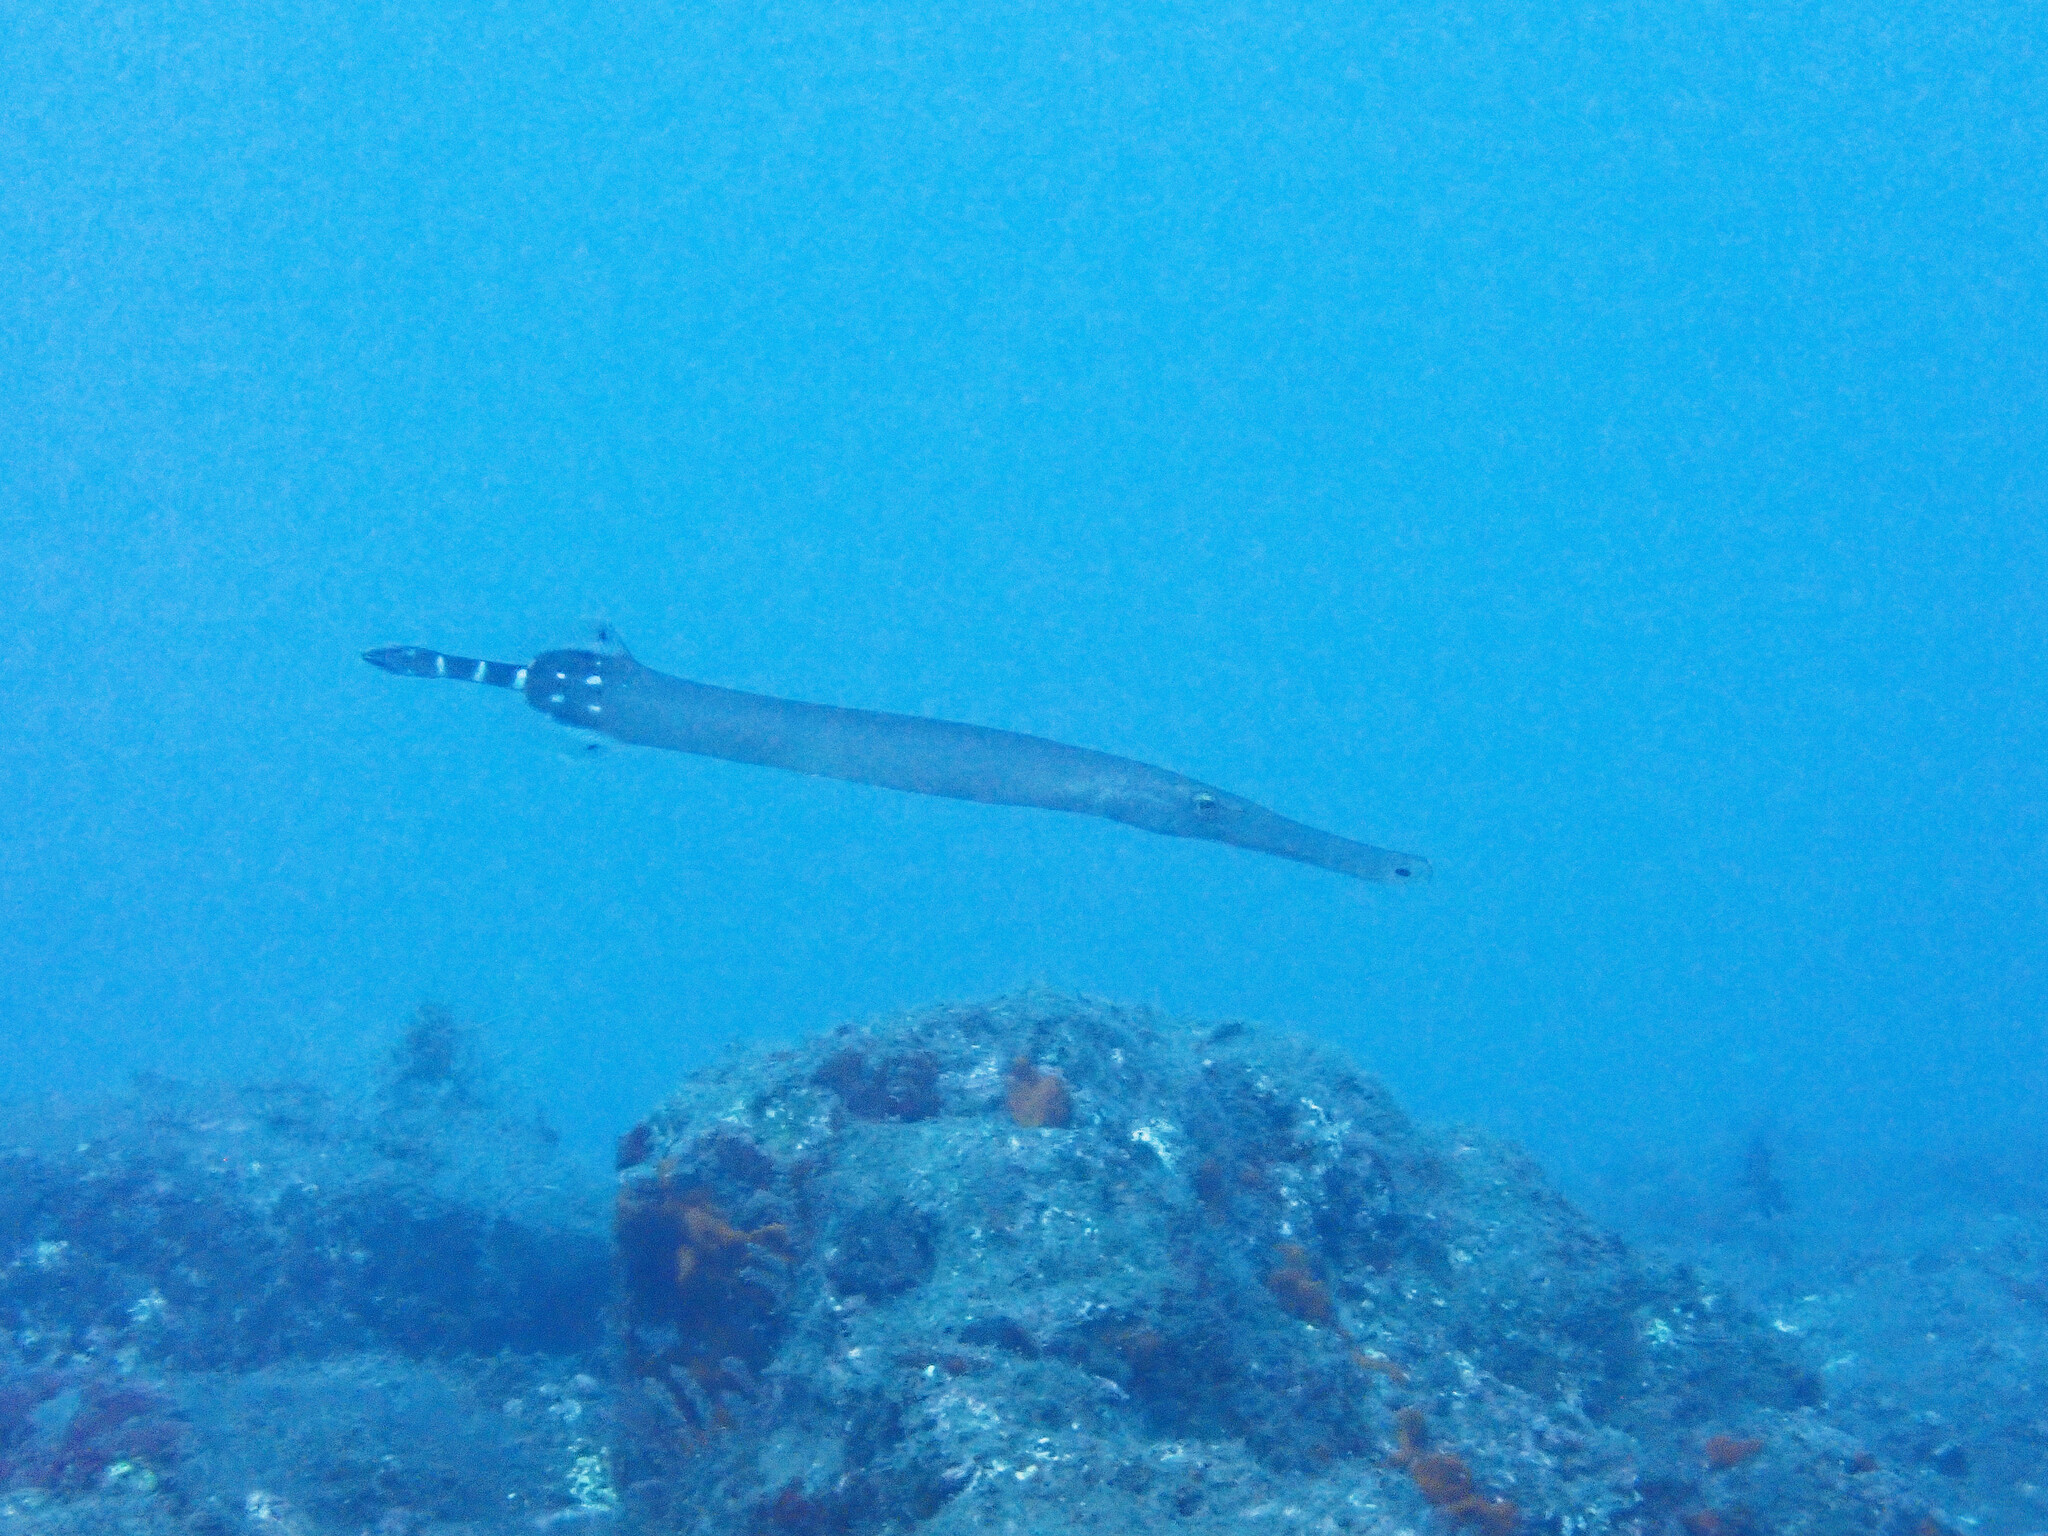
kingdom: Animalia
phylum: Chordata
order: Syngnathiformes
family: Aulostomidae
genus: Aulostomus
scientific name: Aulostomus strigosus
